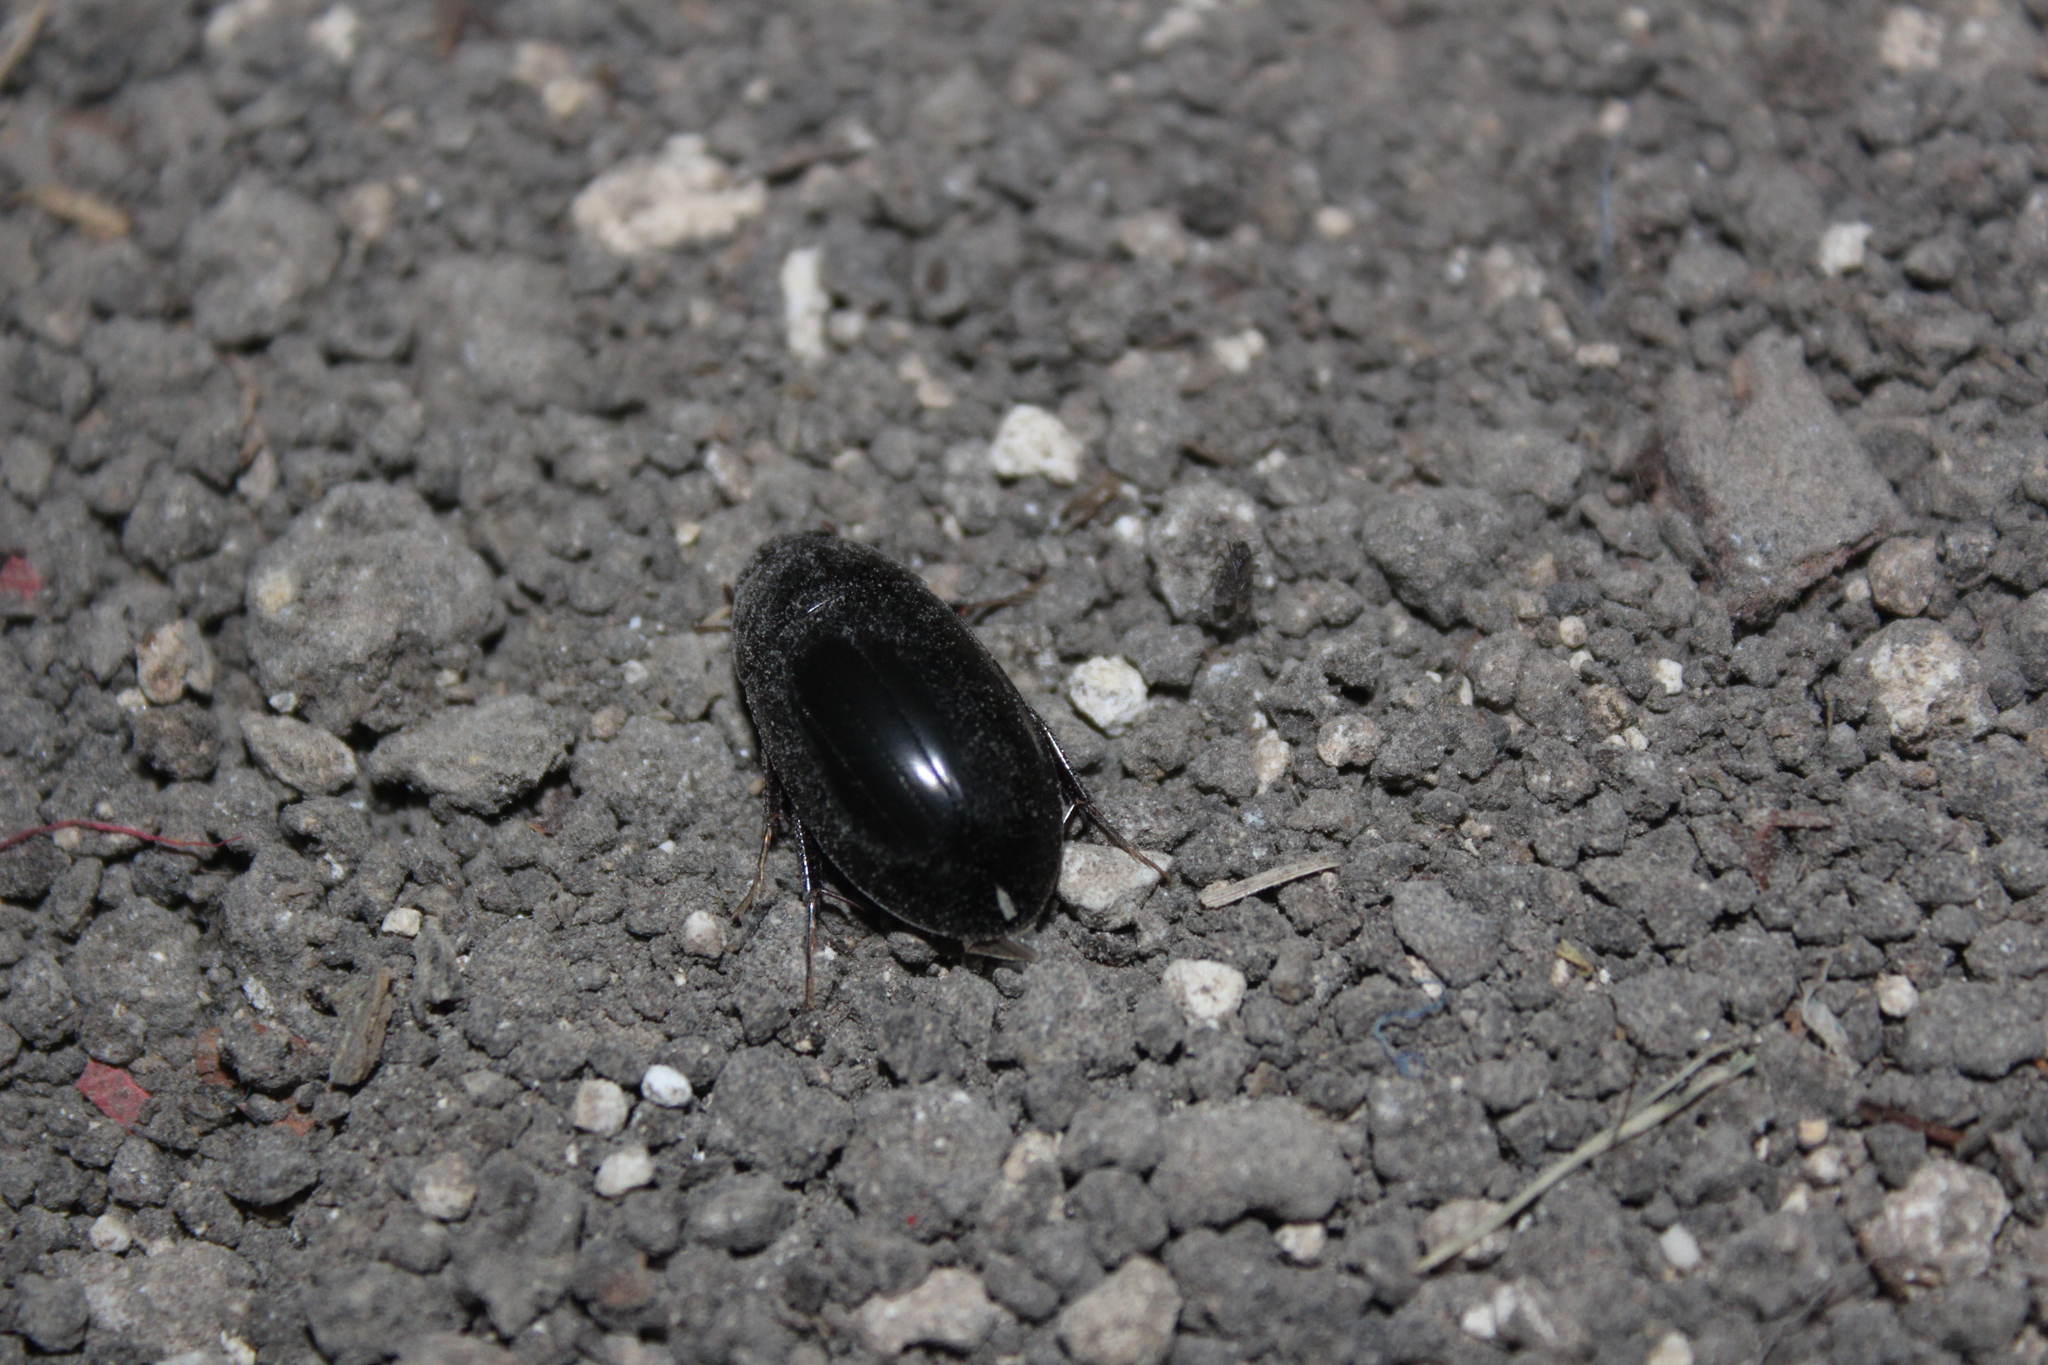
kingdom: Animalia
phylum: Arthropoda
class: Insecta
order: Coleoptera
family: Hydrophilidae
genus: Hydrobiomorpha
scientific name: Hydrobiomorpha casta
